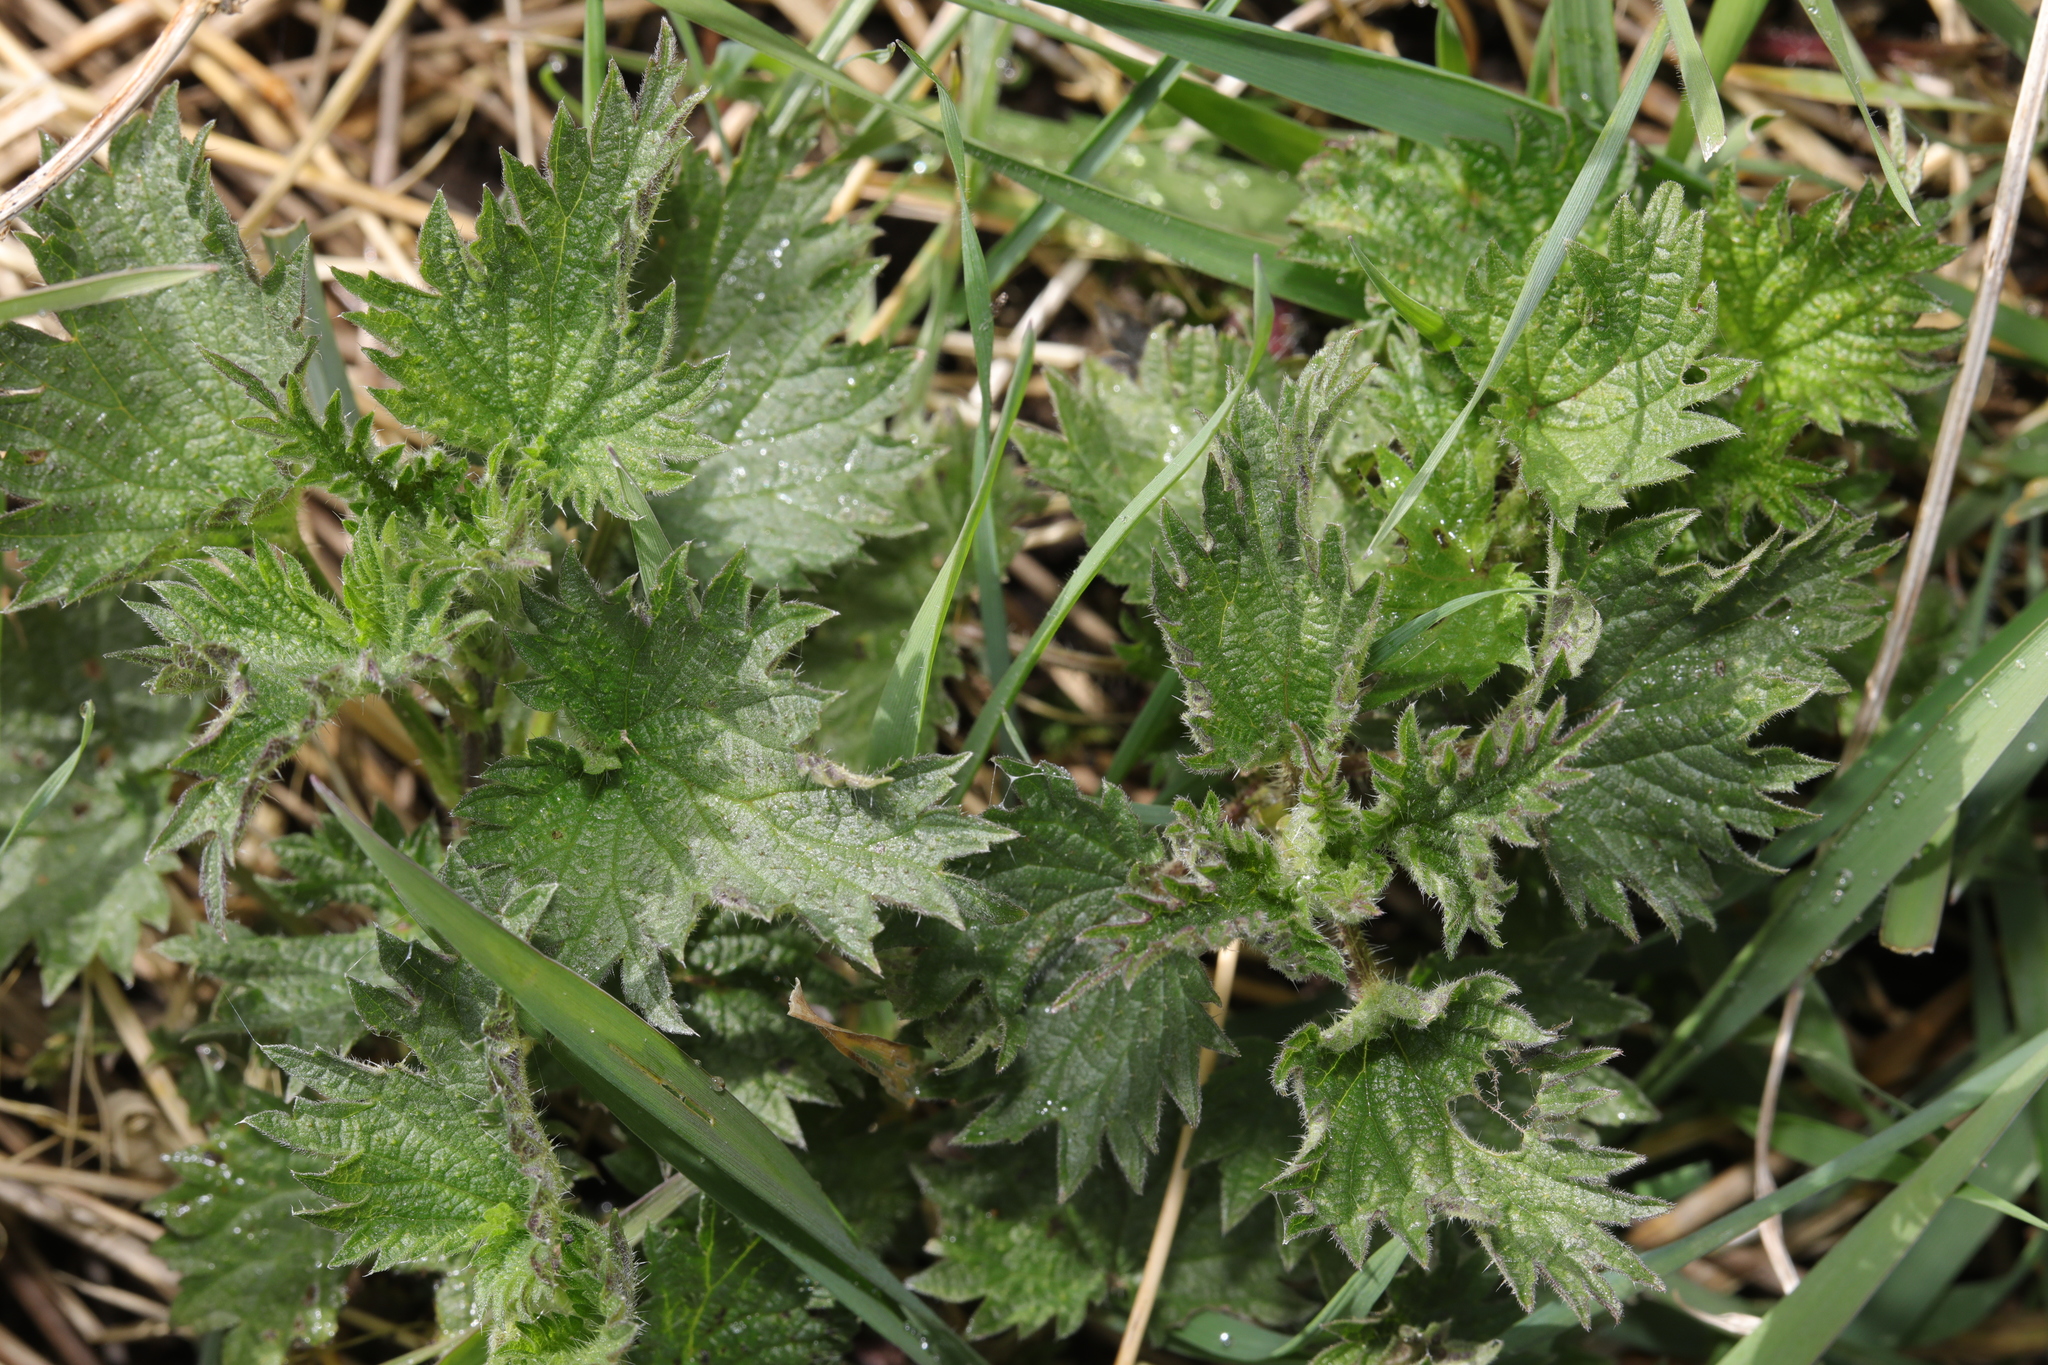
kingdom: Plantae
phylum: Tracheophyta
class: Magnoliopsida
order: Rosales
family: Urticaceae
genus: Urtica
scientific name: Urtica dioica
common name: Common nettle
